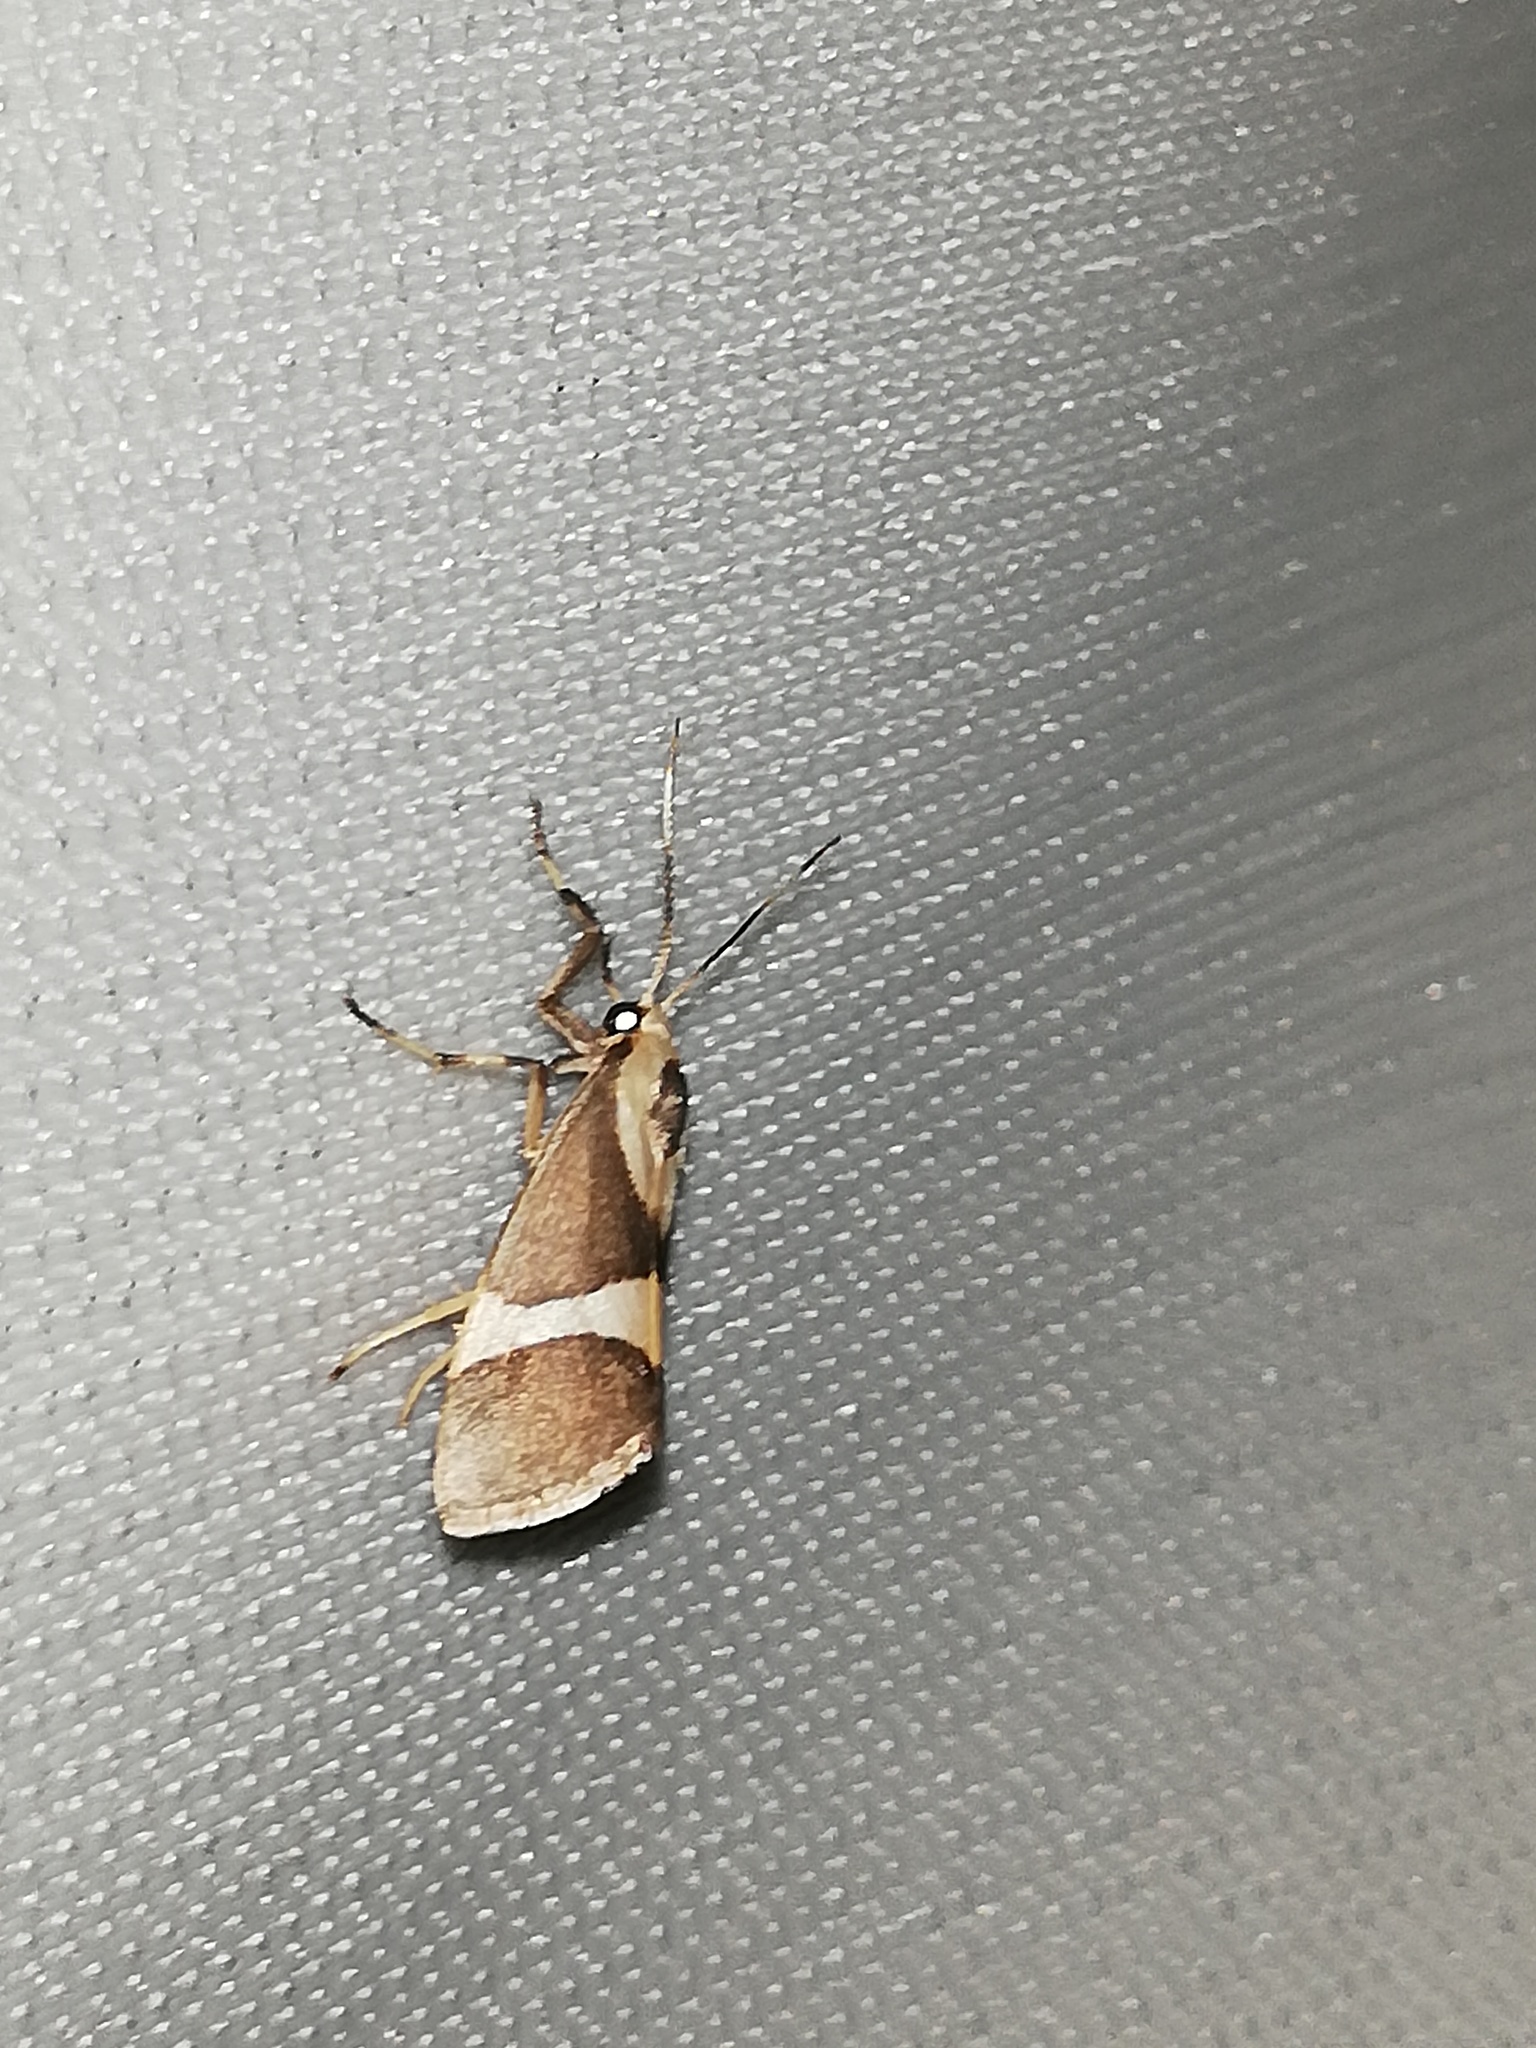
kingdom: Animalia
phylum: Arthropoda
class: Insecta
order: Lepidoptera
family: Erebidae
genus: Cisthene
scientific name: Cisthene subrufa
